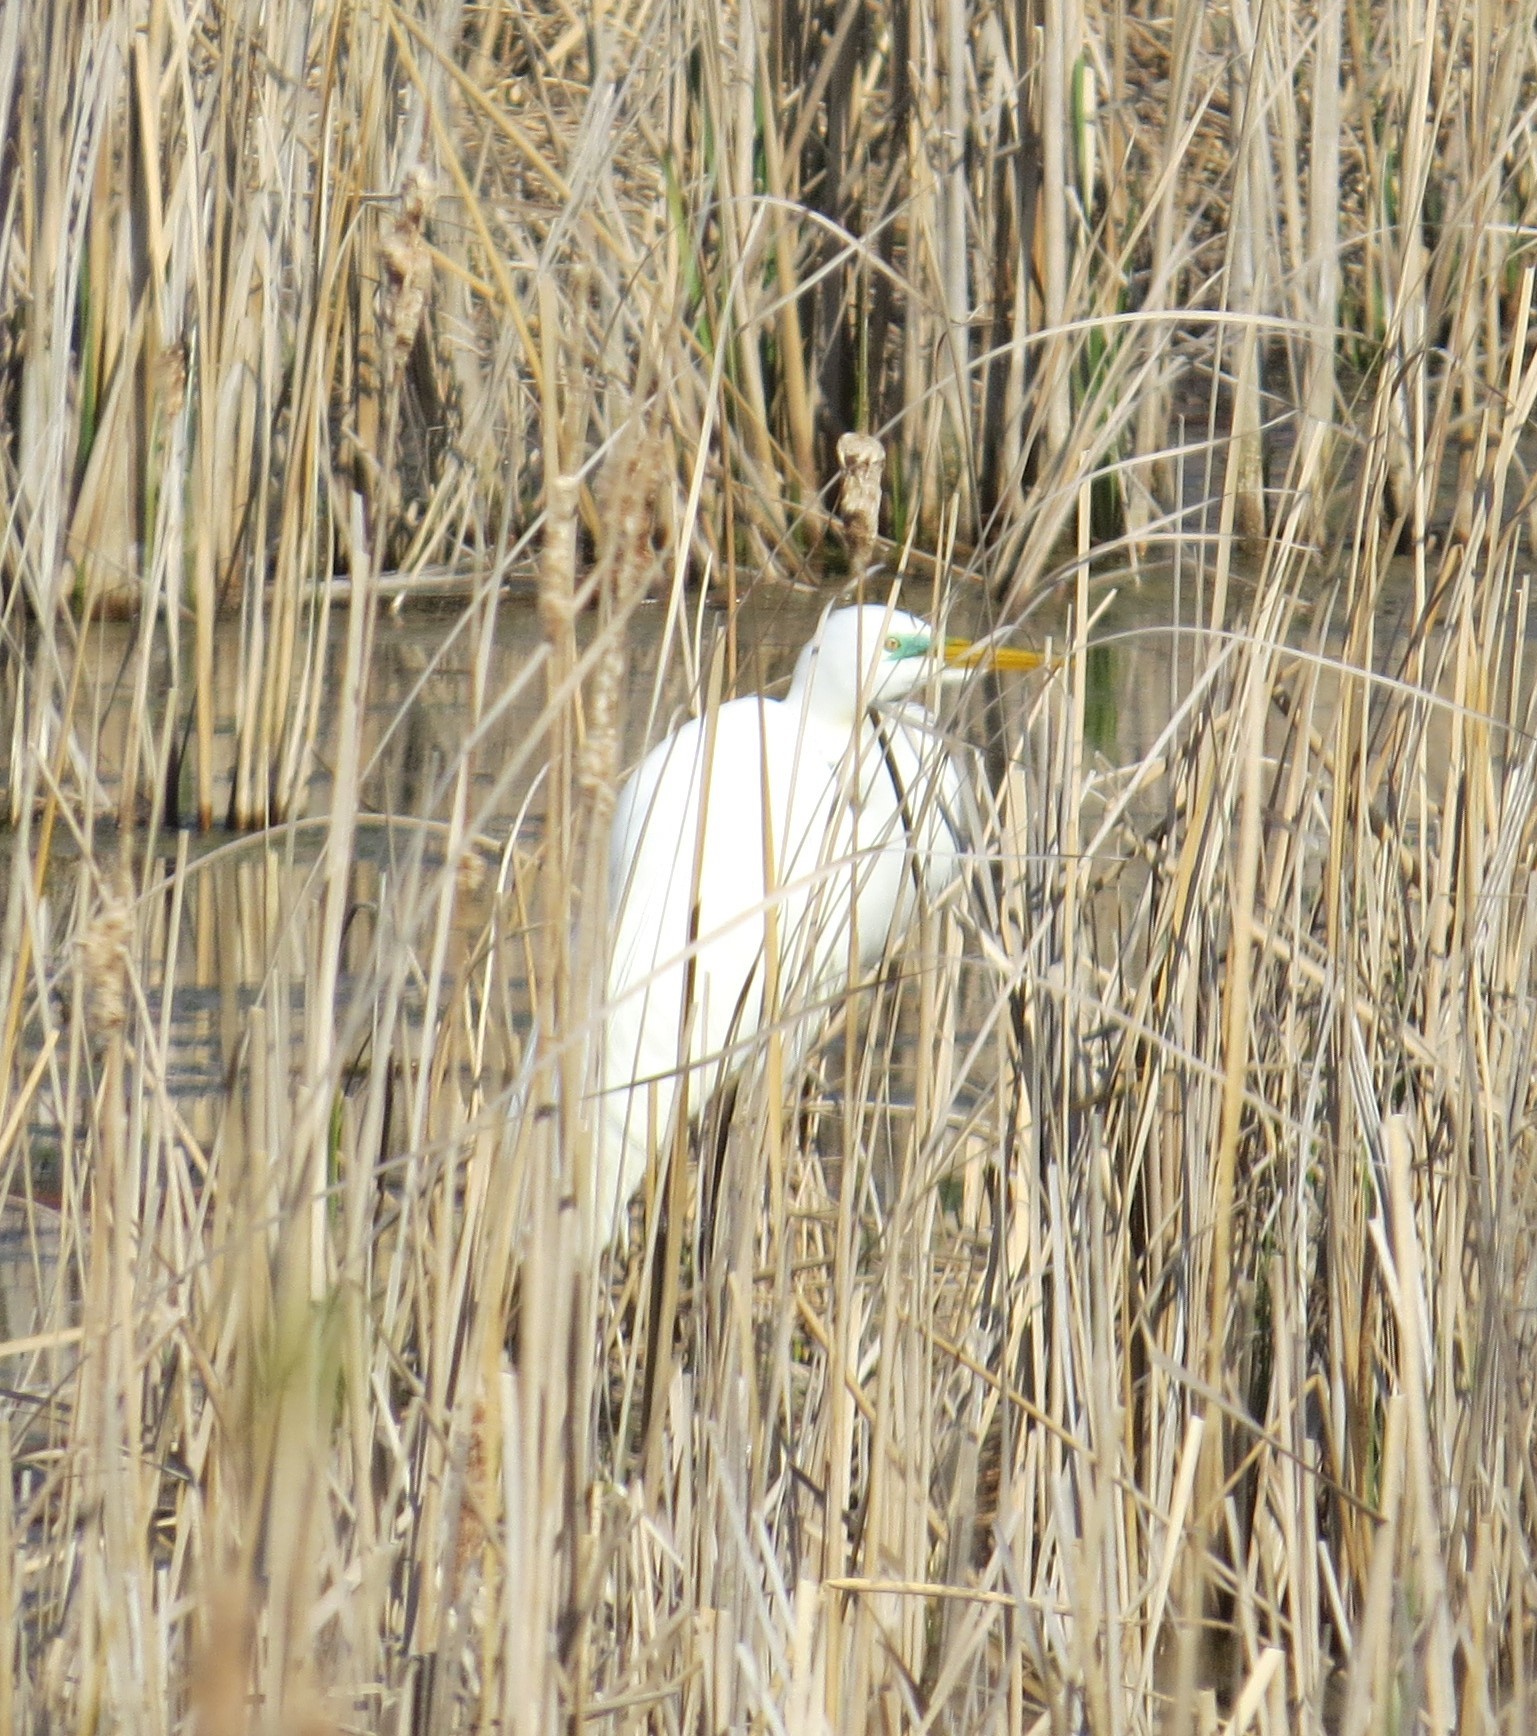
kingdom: Animalia
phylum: Chordata
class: Aves
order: Pelecaniformes
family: Ardeidae
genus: Ardea
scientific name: Ardea alba
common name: Great egret
